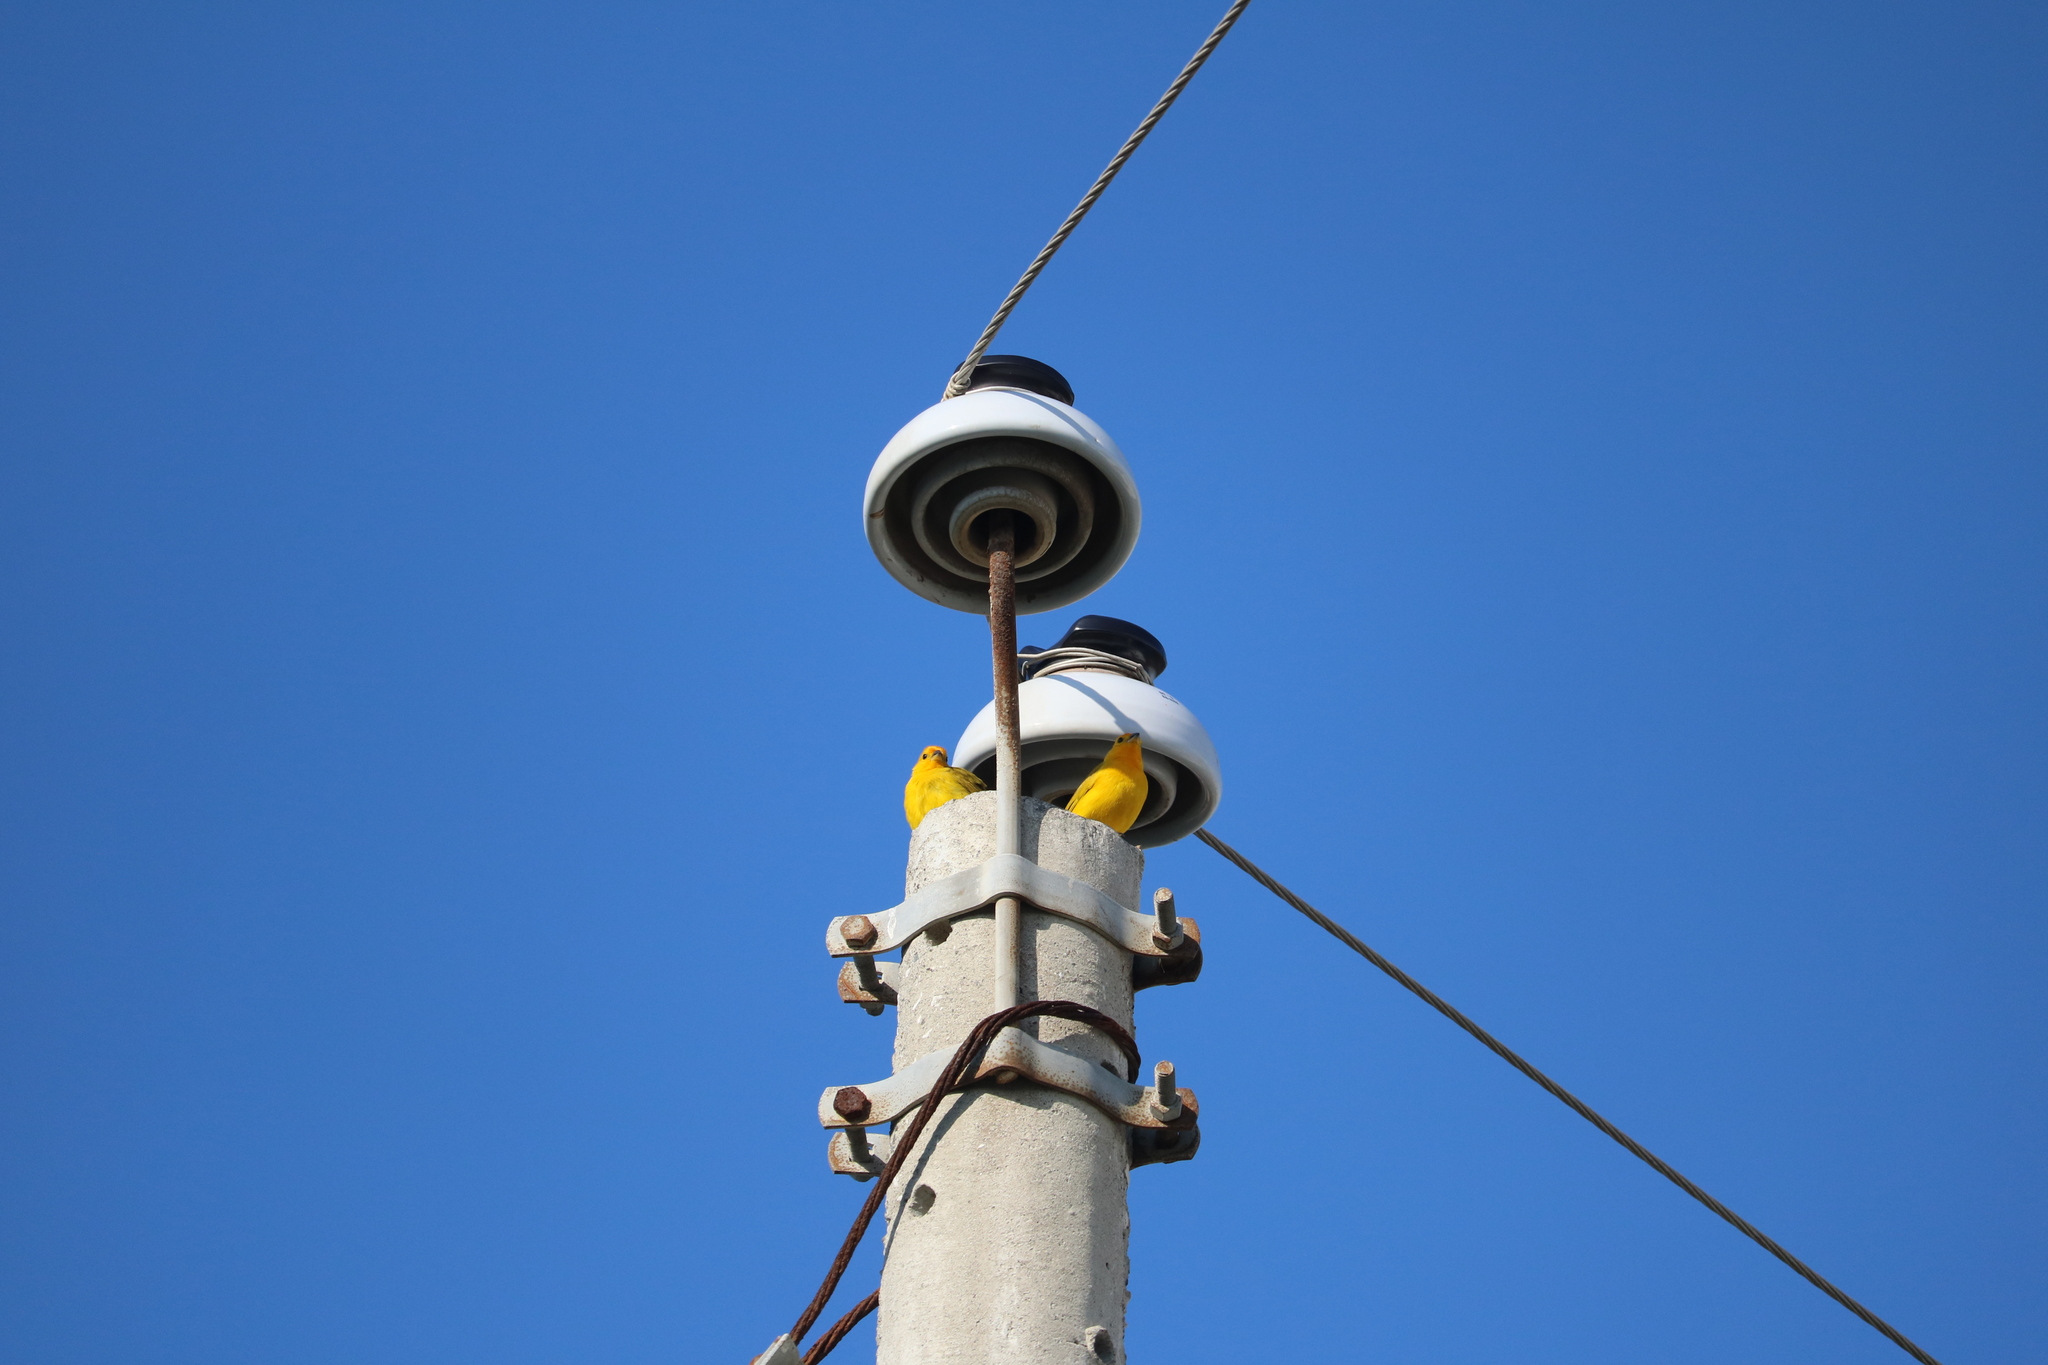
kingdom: Animalia
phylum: Chordata
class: Aves
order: Passeriformes
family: Thraupidae
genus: Sicalis
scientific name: Sicalis flaveola
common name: Saffron finch
